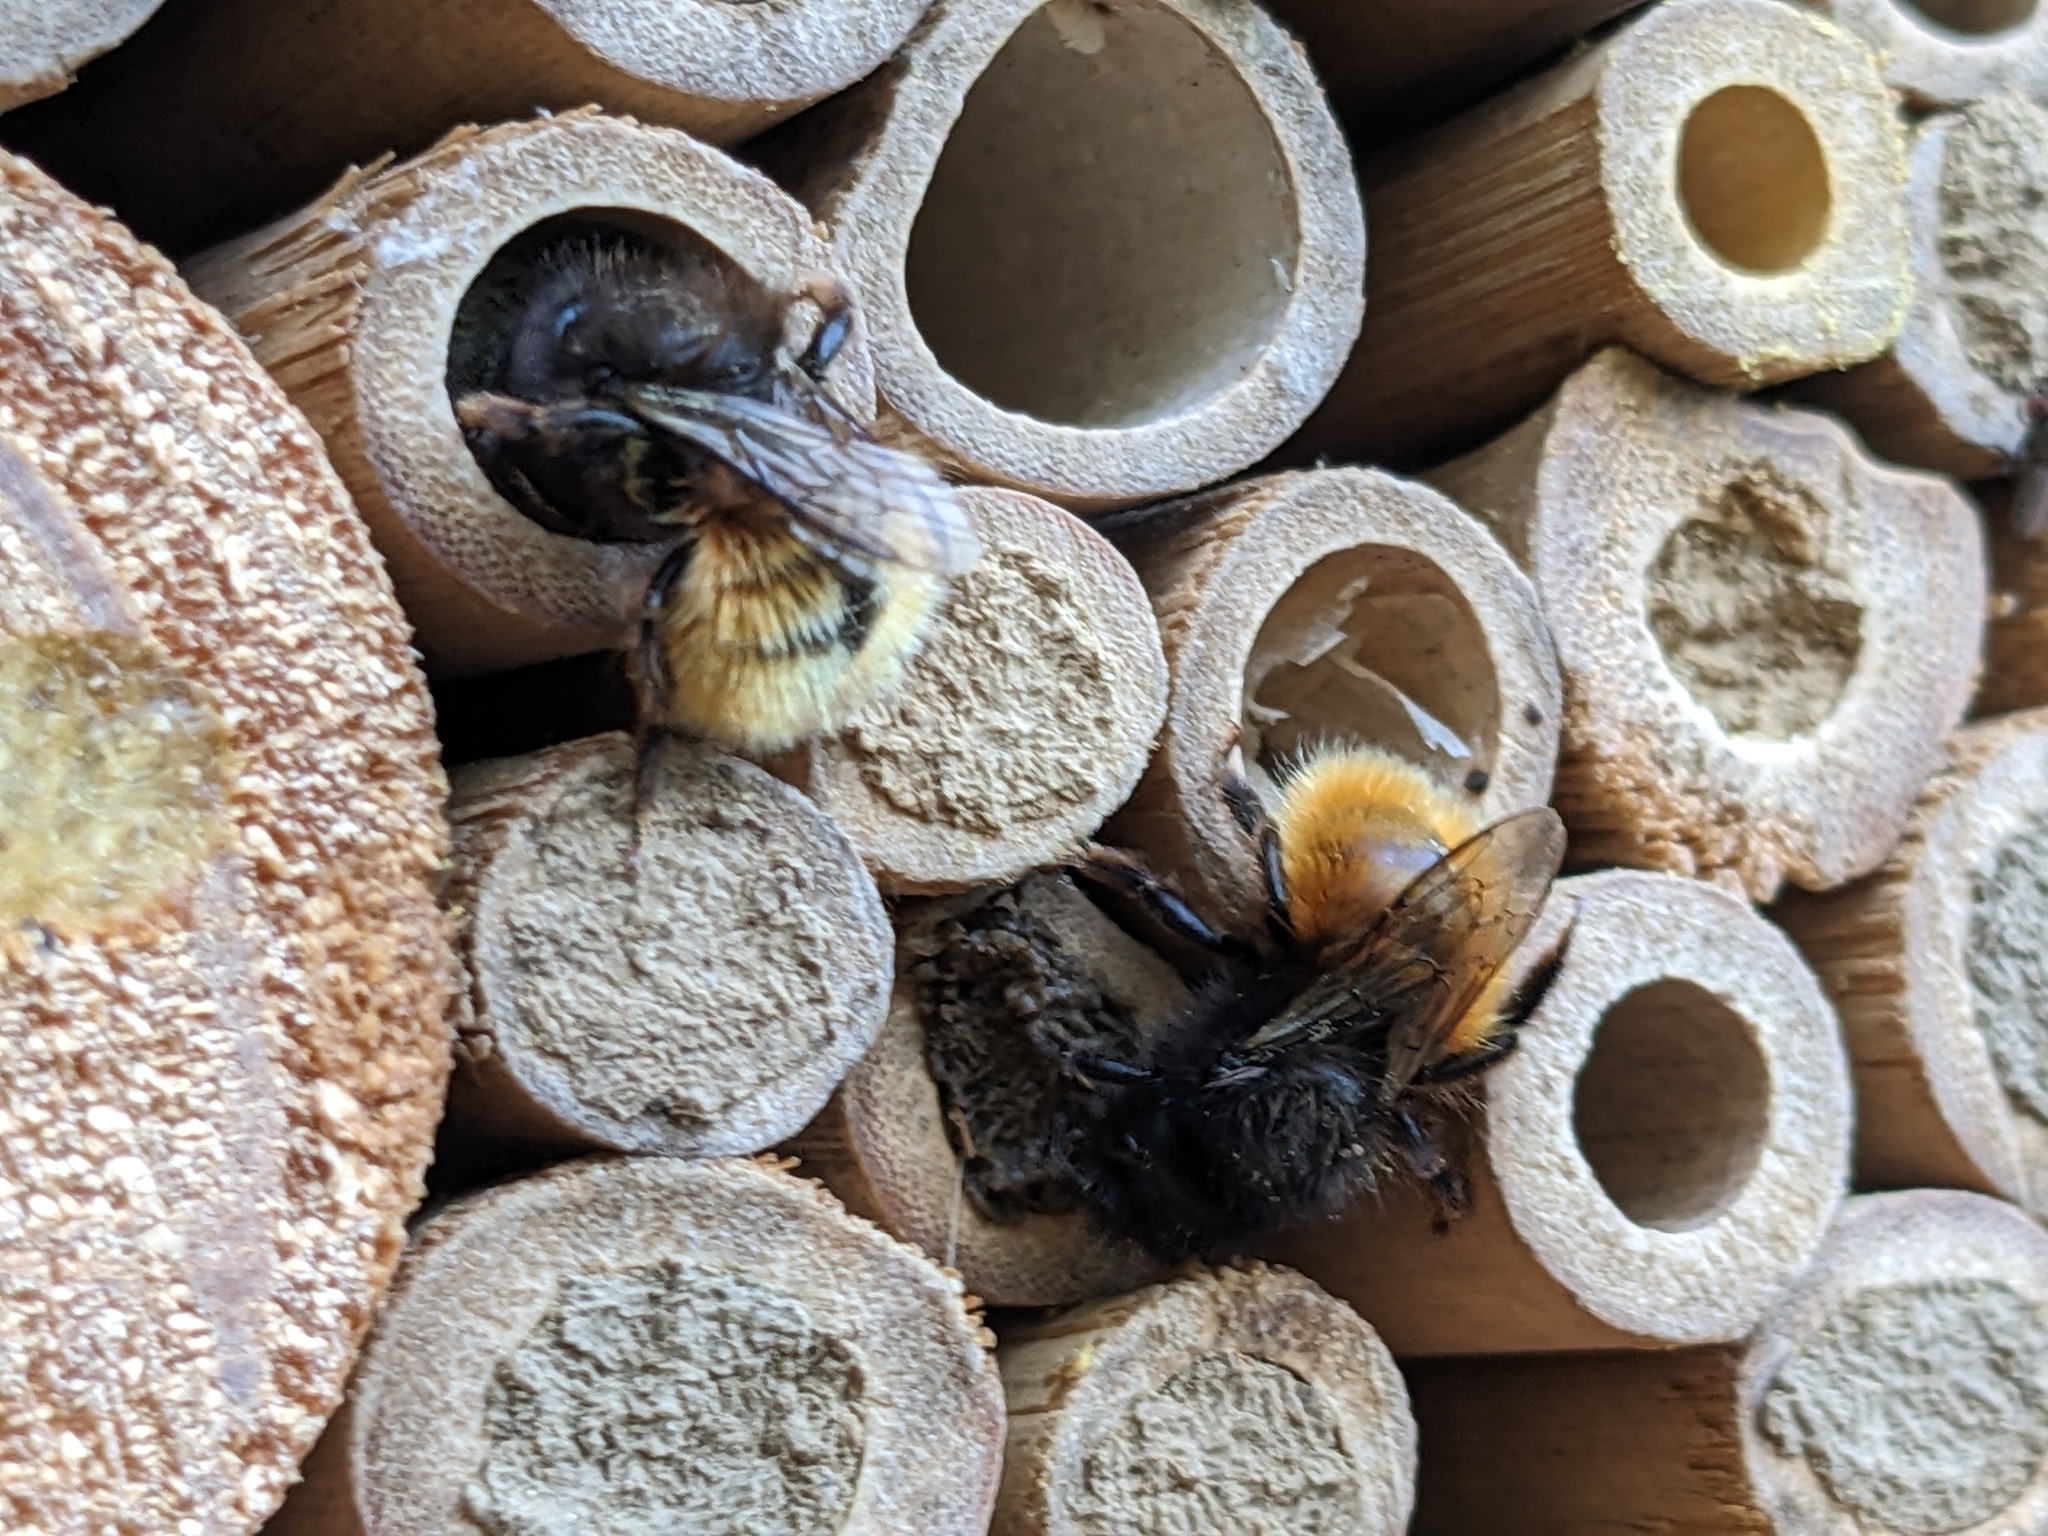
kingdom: Animalia
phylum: Arthropoda
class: Insecta
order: Hymenoptera
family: Megachilidae
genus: Osmia
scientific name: Osmia cornuta
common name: Mason bee
